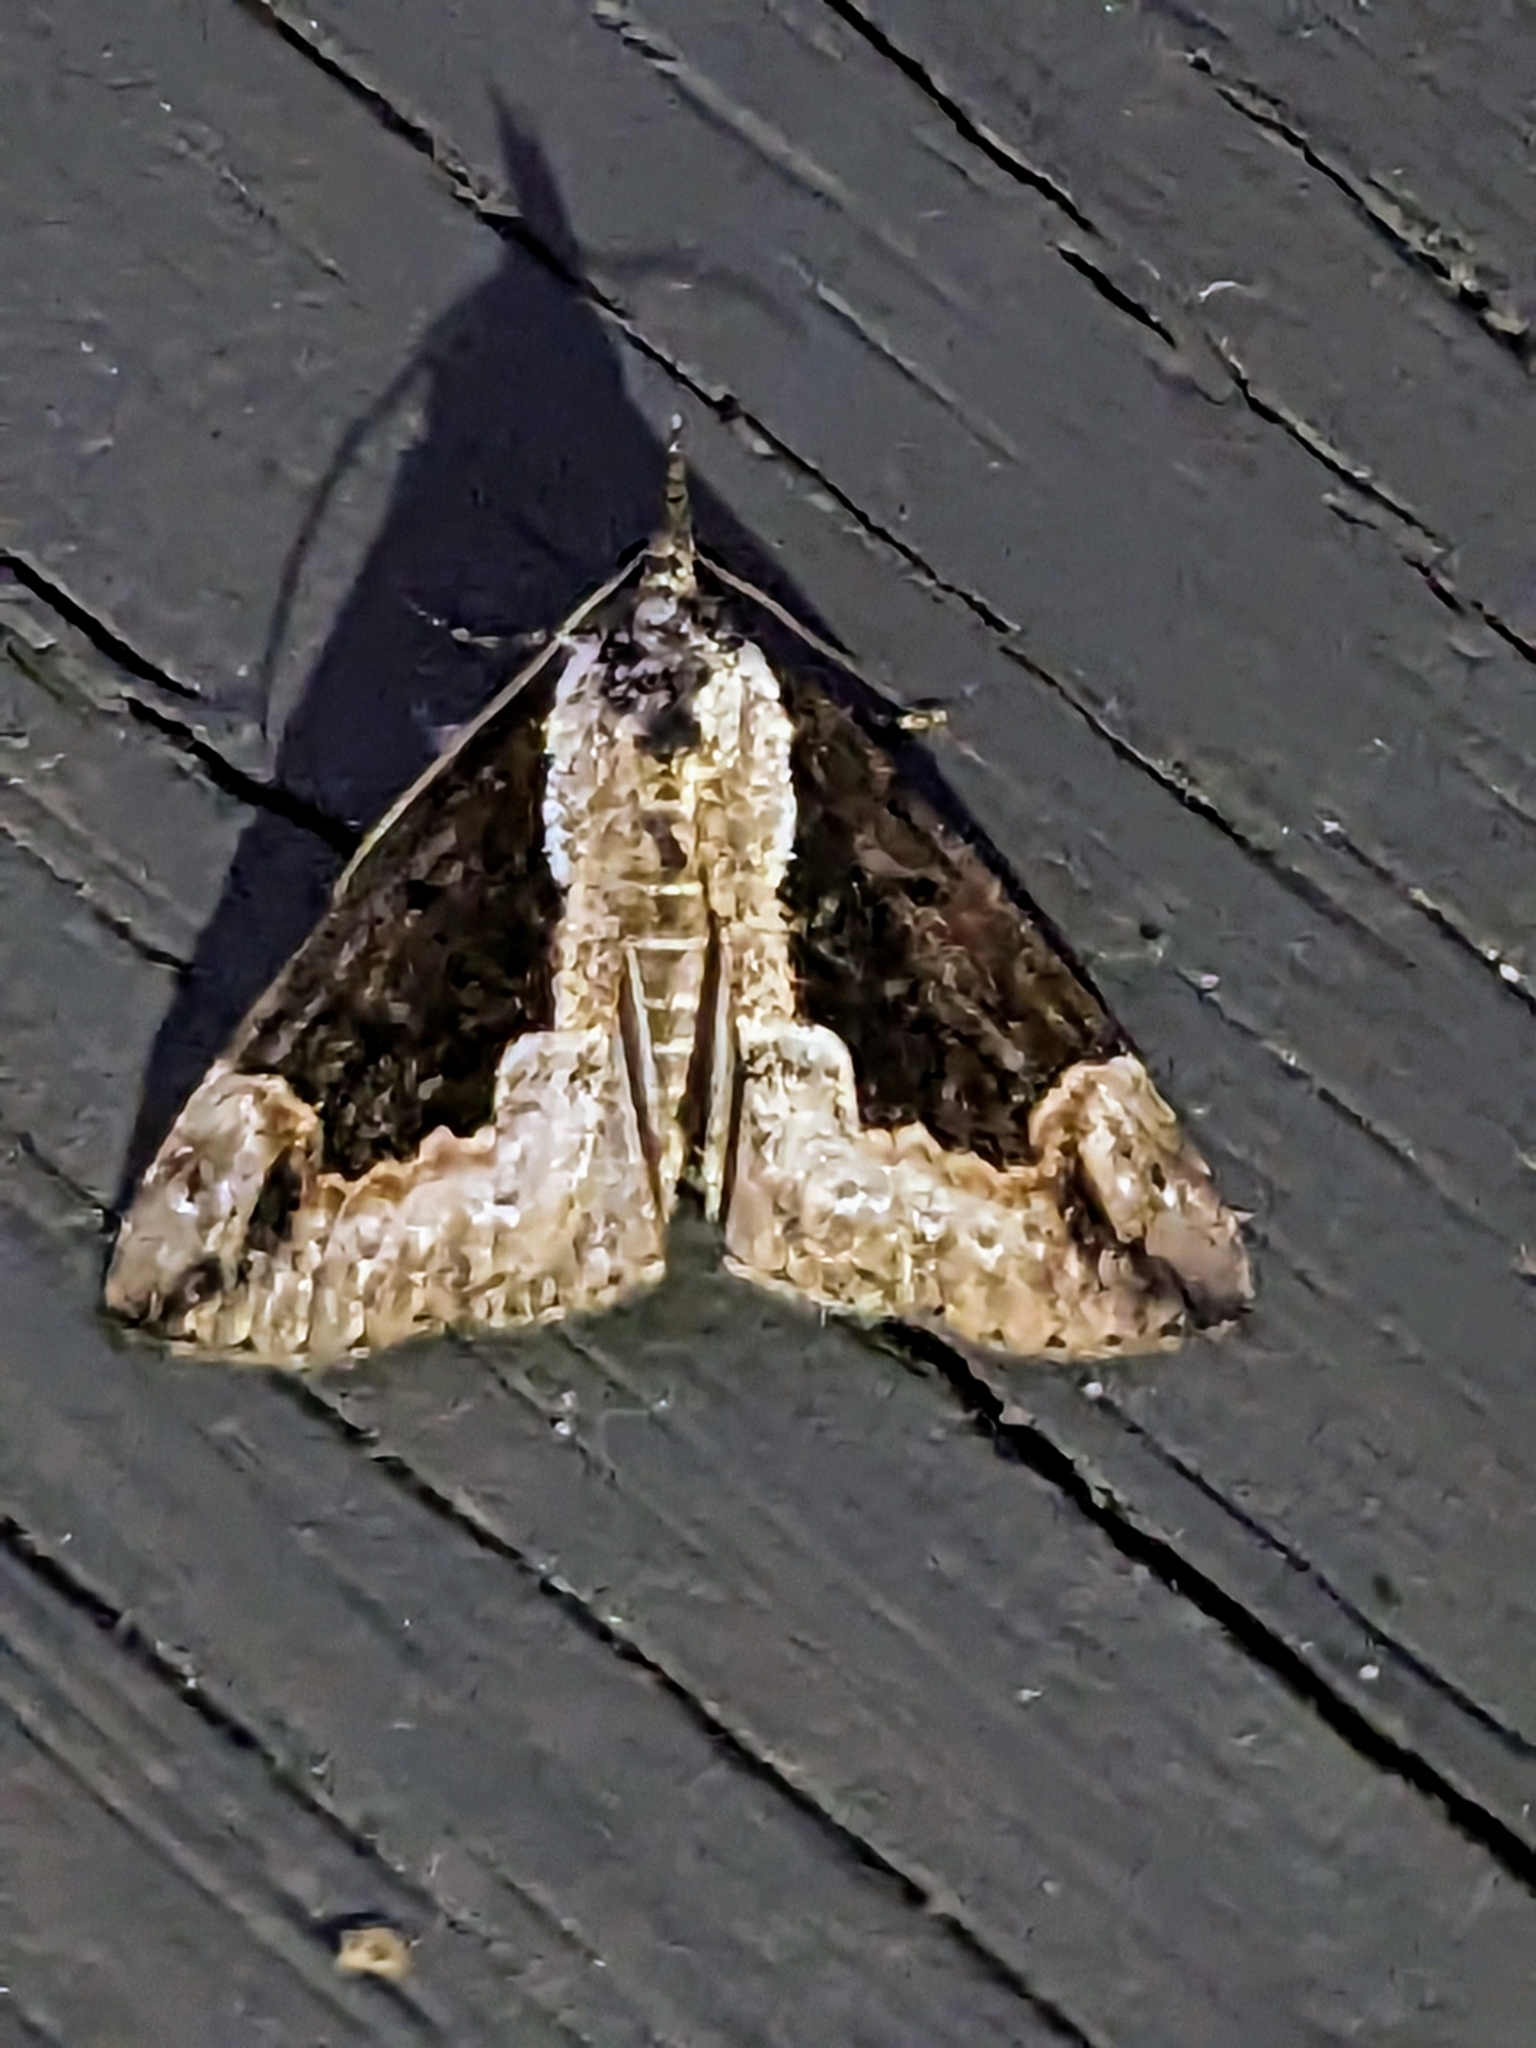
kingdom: Animalia
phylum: Arthropoda
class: Insecta
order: Lepidoptera
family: Erebidae
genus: Hypena
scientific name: Hypena baltimoralis
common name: Baltimore snout
